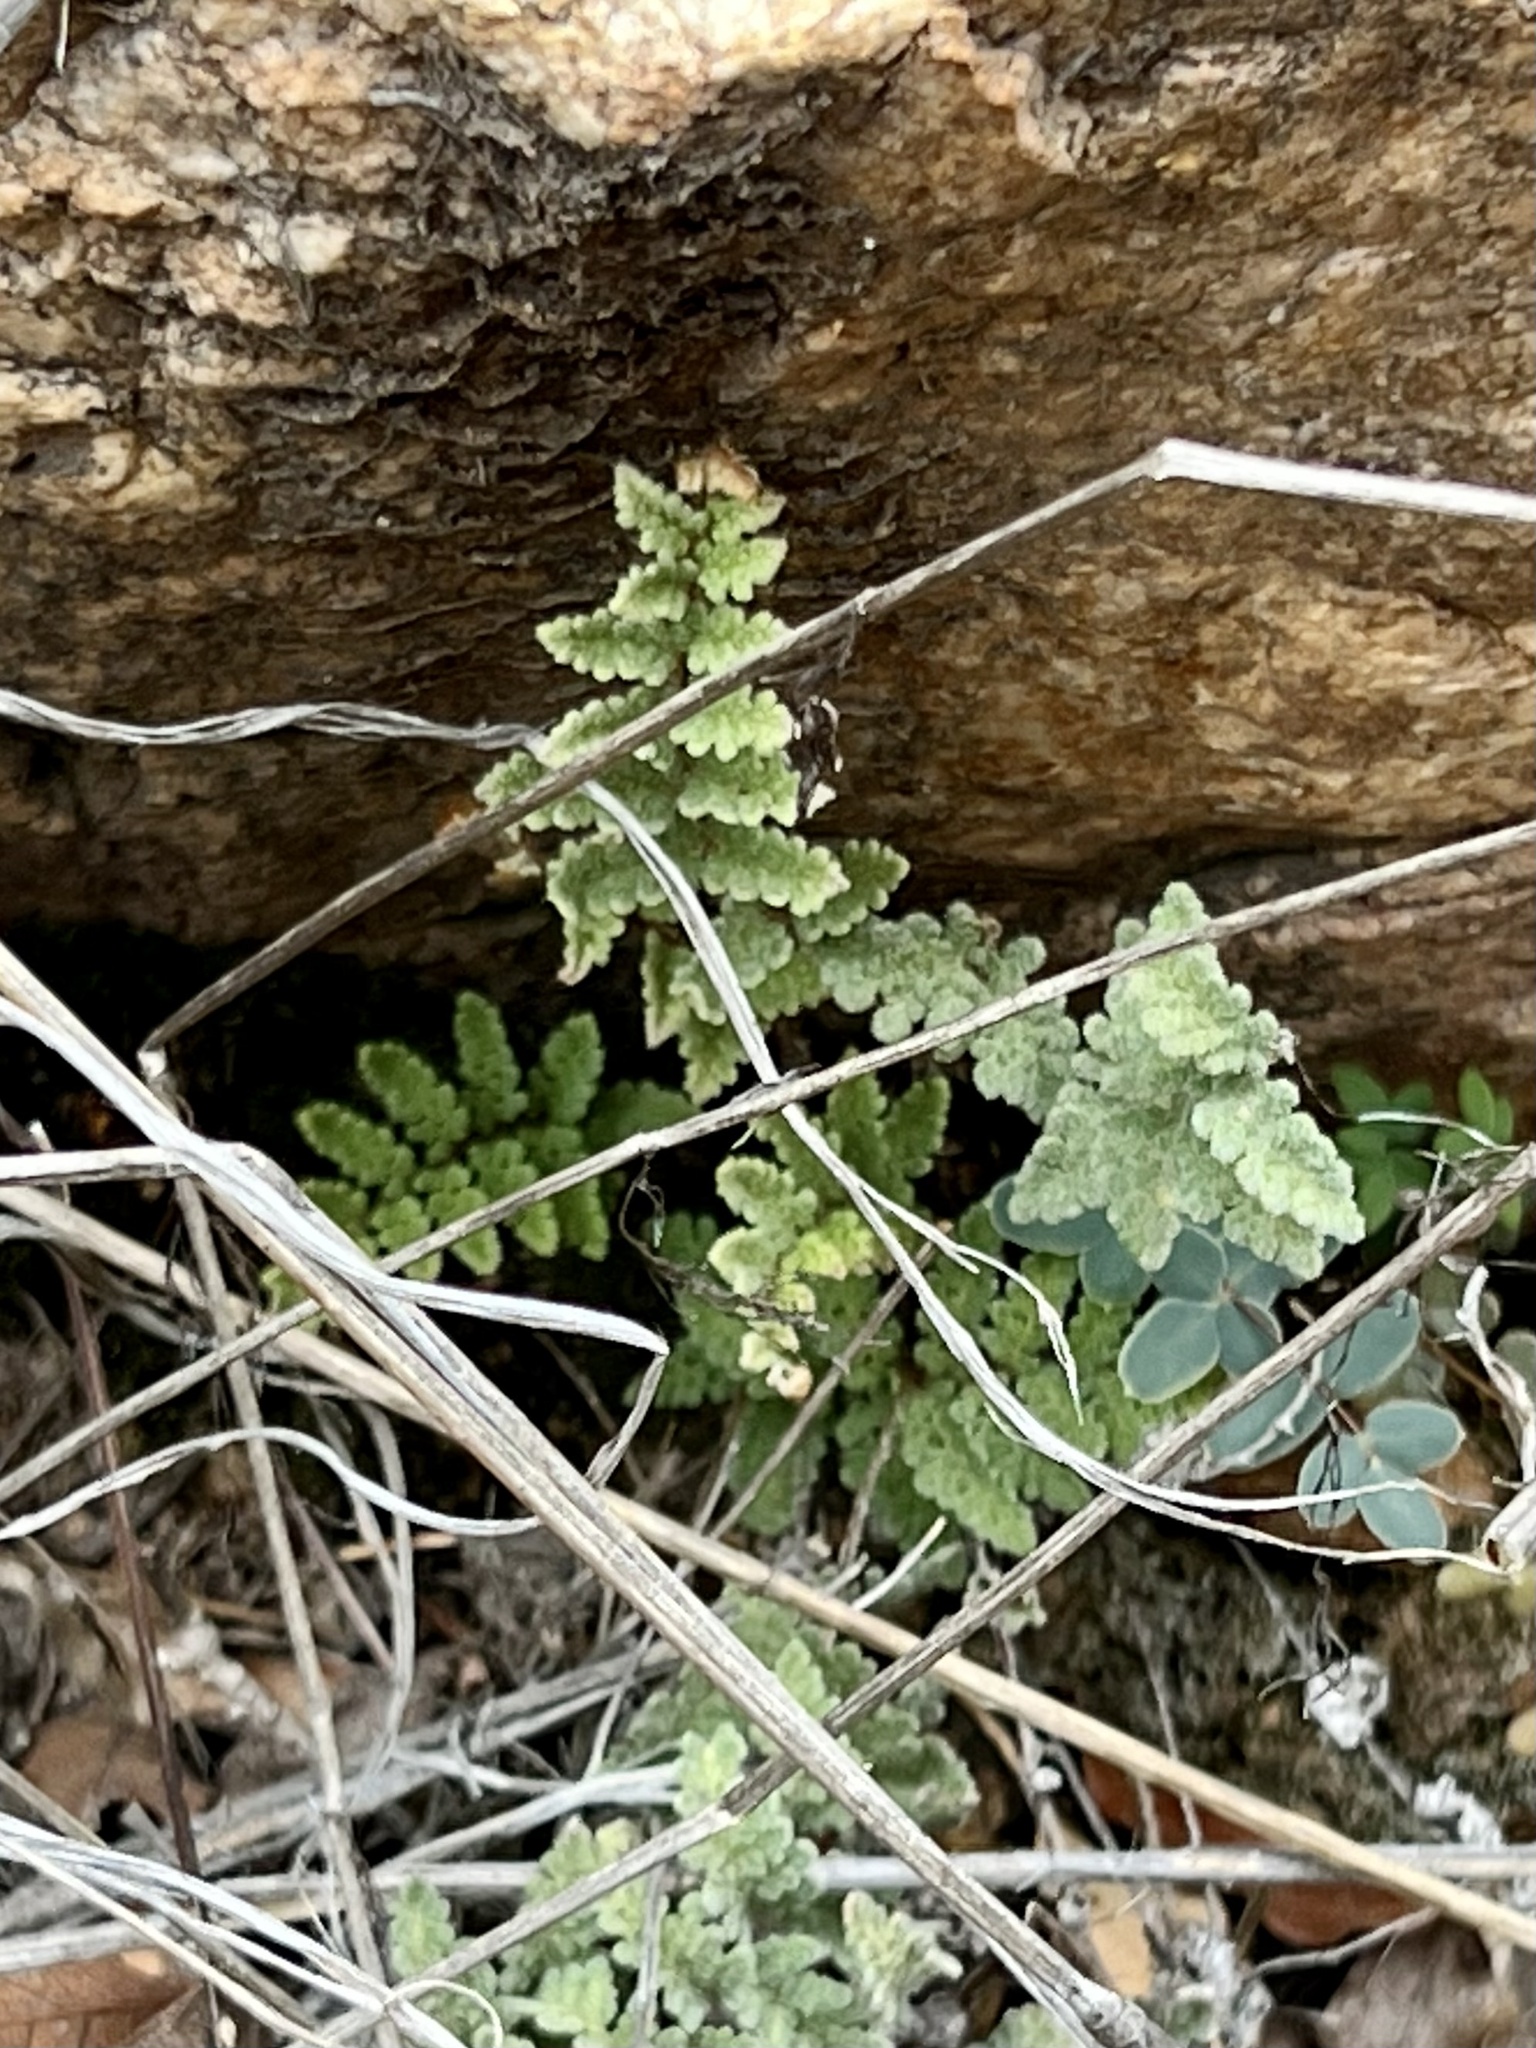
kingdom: Plantae
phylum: Tracheophyta
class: Polypodiopsida
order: Polypodiales
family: Pteridaceae
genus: Myriopteris
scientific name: Myriopteris rufa
